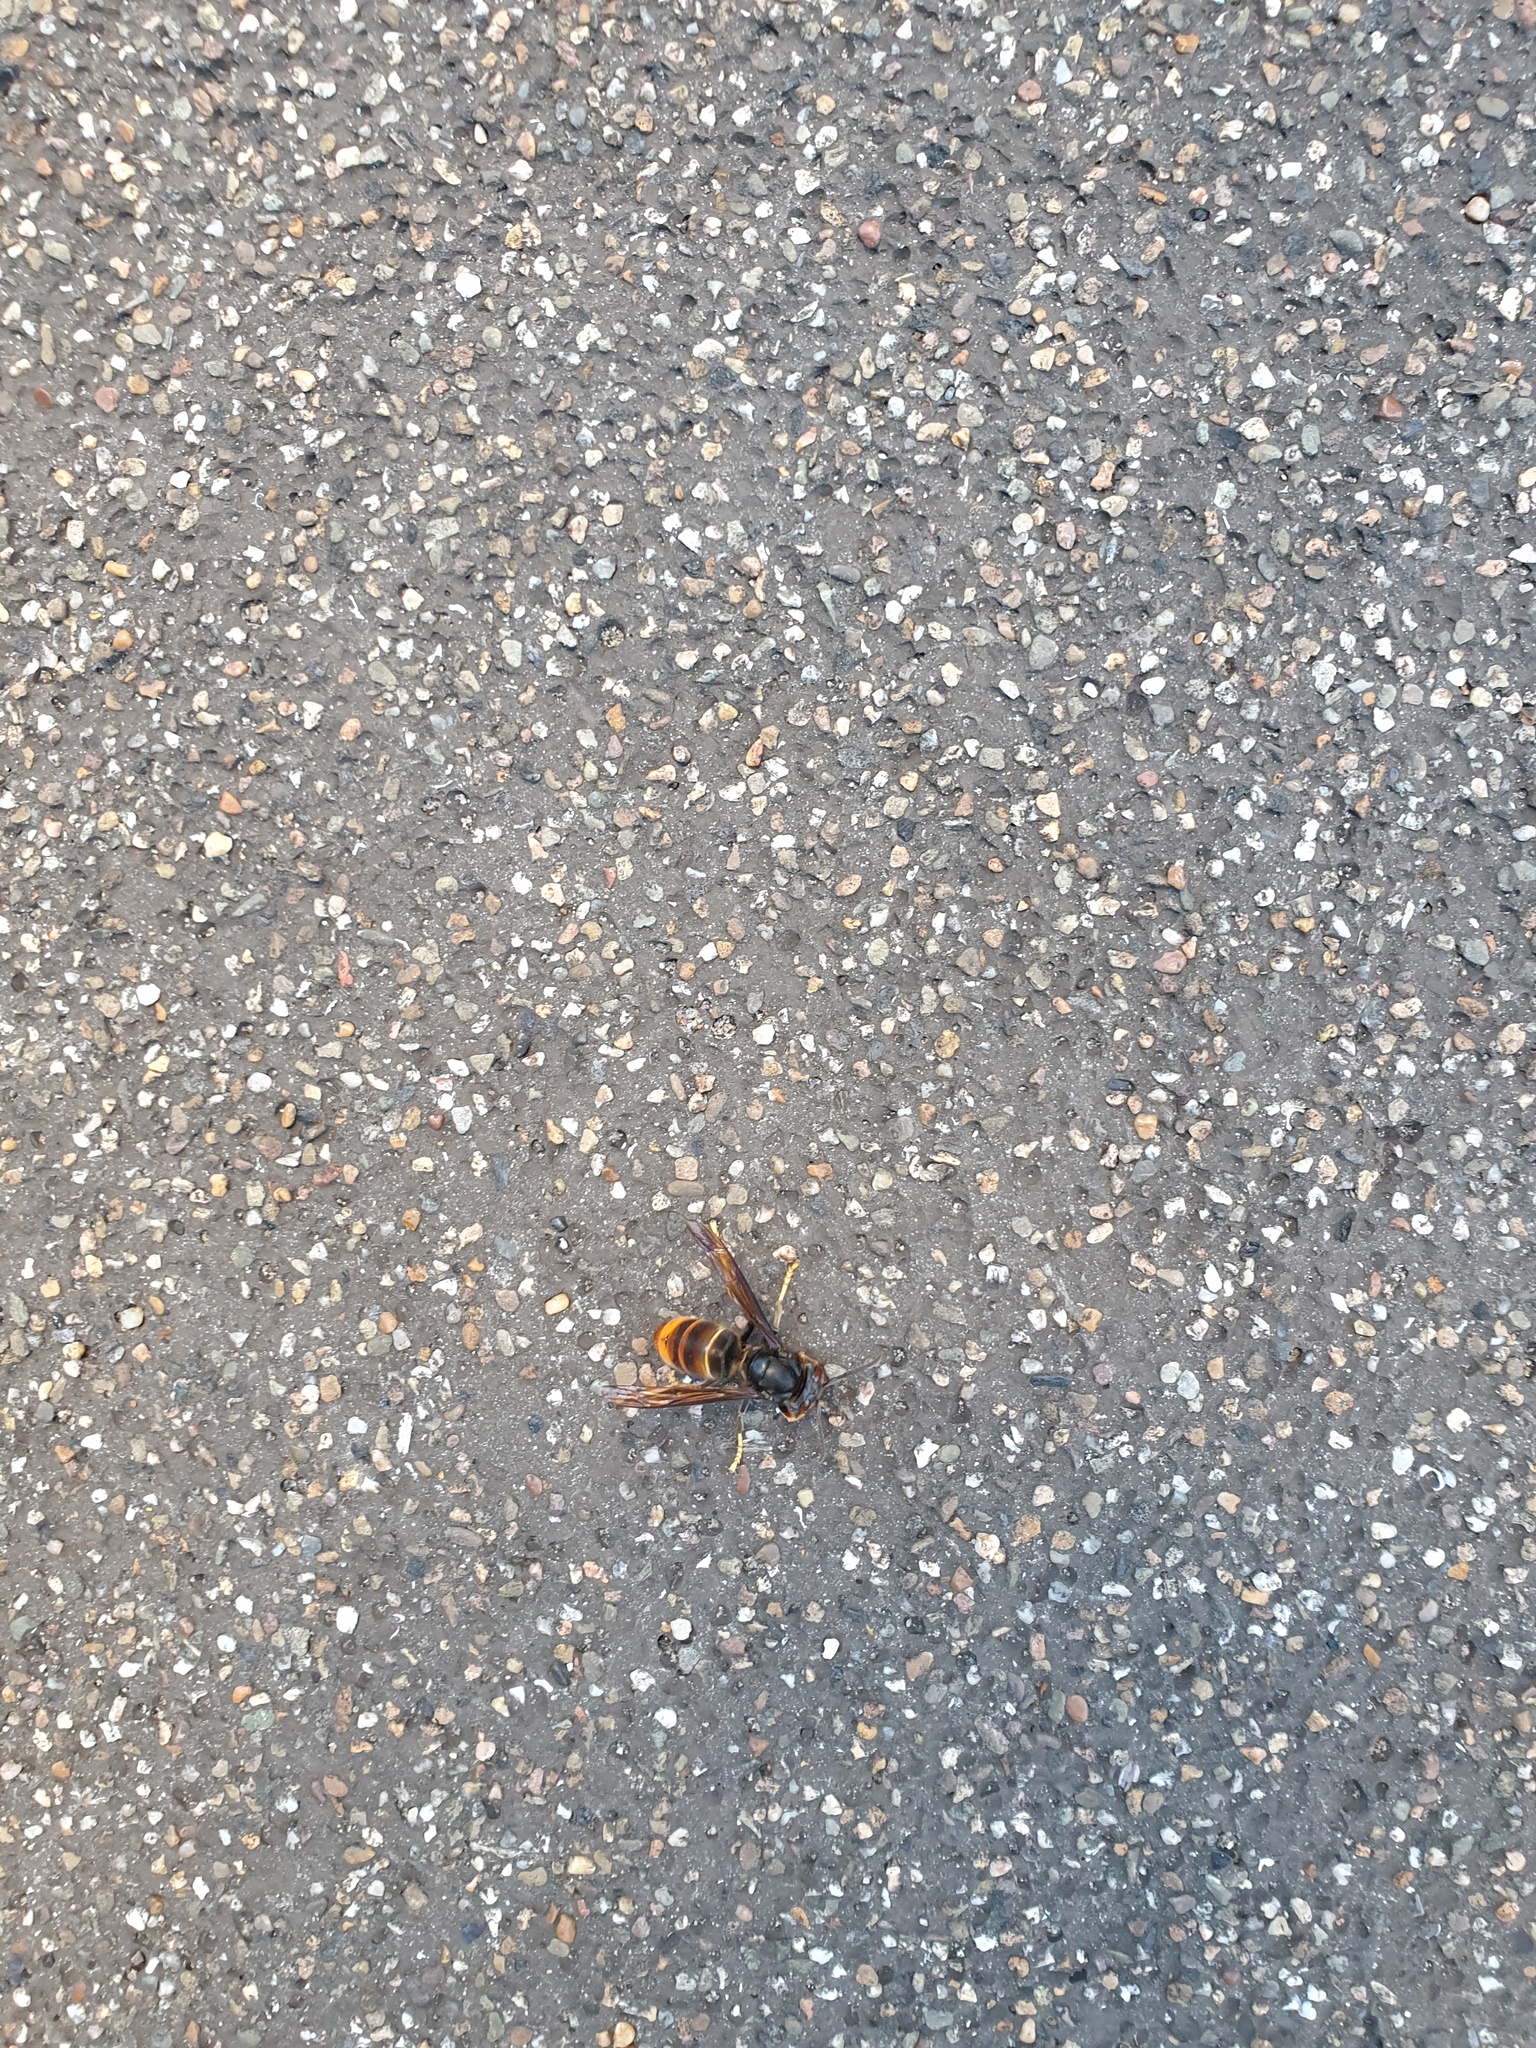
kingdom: Animalia
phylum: Arthropoda
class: Insecta
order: Hymenoptera
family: Vespidae
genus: Vespa
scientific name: Vespa velutina
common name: Asian hornet
